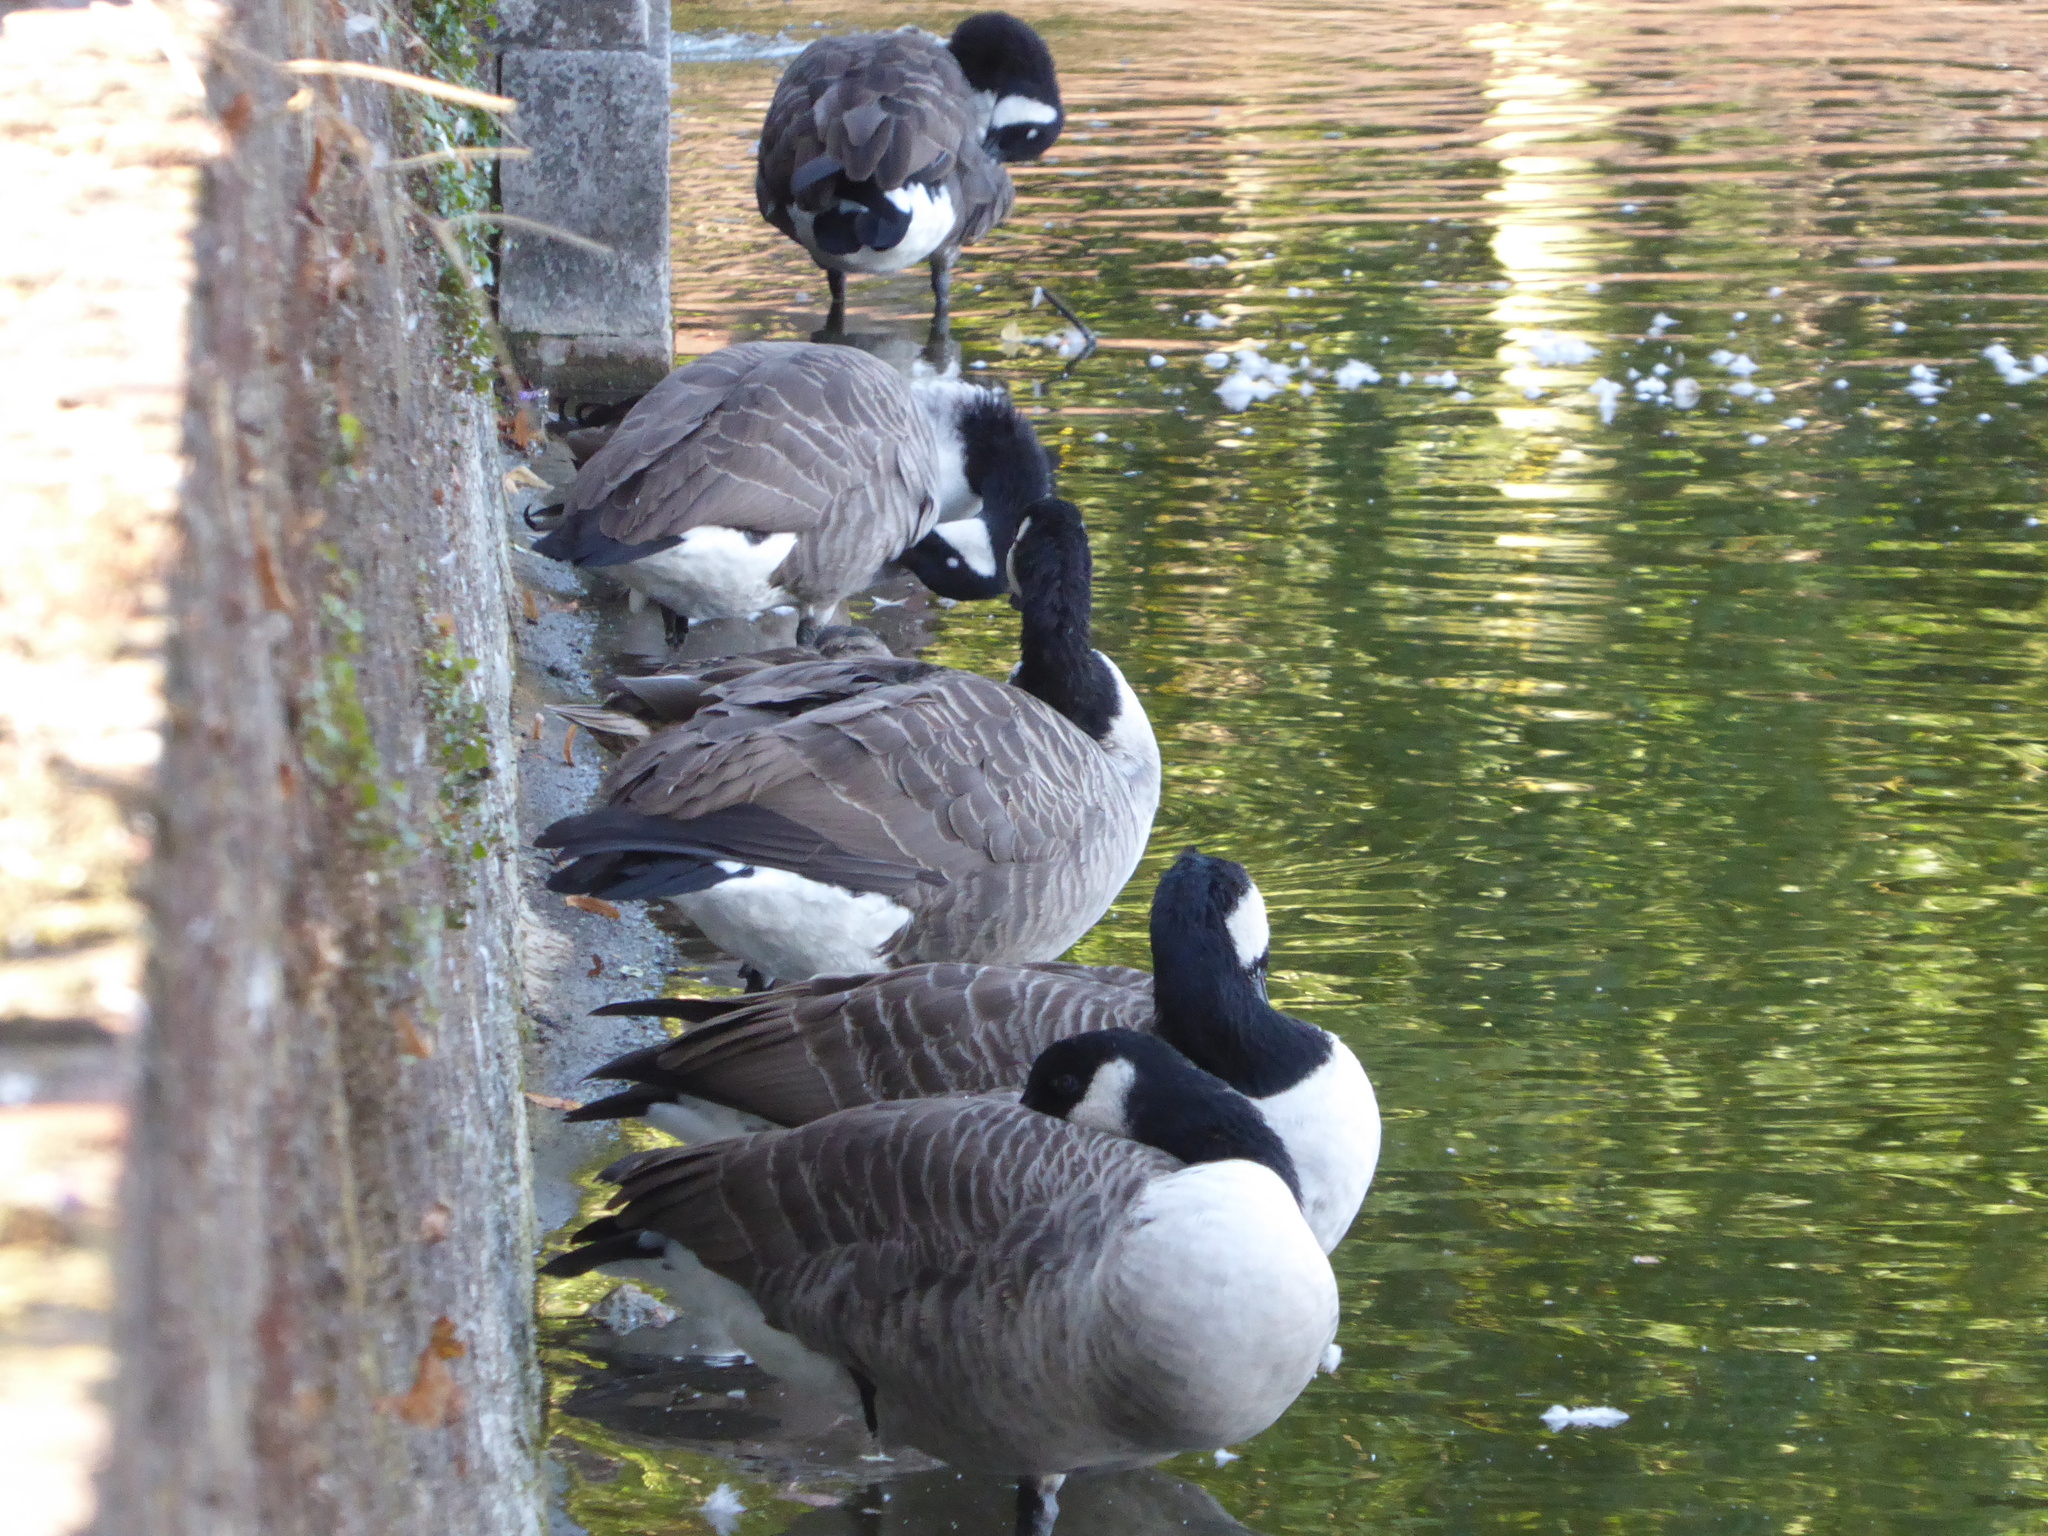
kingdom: Animalia
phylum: Chordata
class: Aves
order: Anseriformes
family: Anatidae
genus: Branta
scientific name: Branta canadensis
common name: Canada goose
